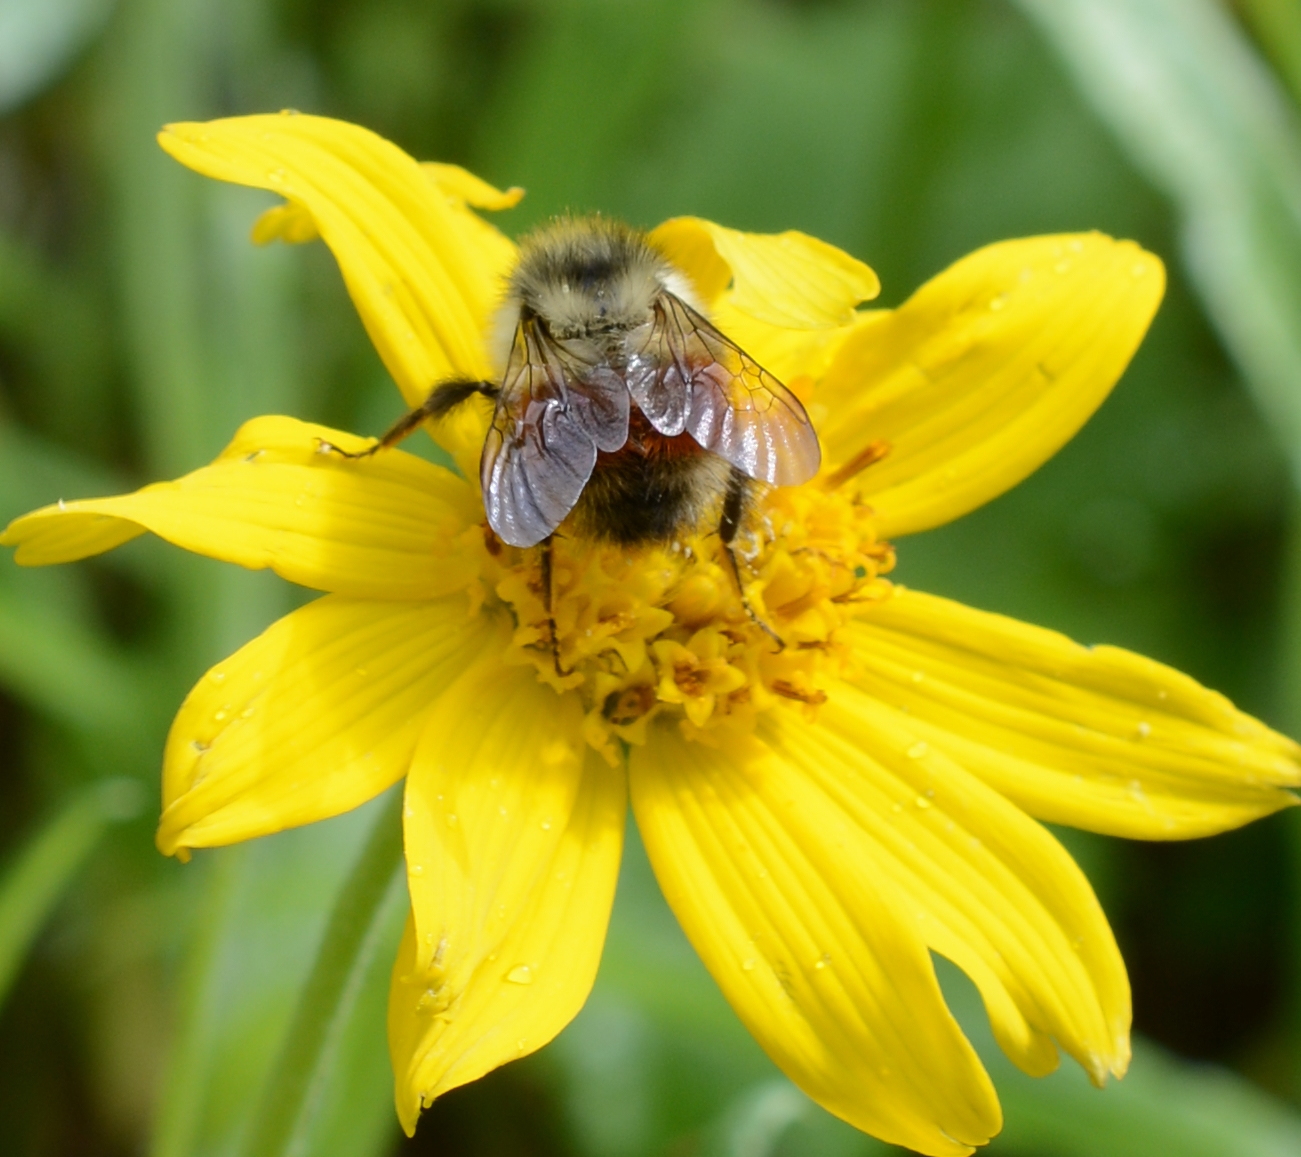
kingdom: Animalia
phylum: Arthropoda
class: Insecta
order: Hymenoptera
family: Apidae
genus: Bombus
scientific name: Bombus melanopygus
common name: Black tail bumble bee
